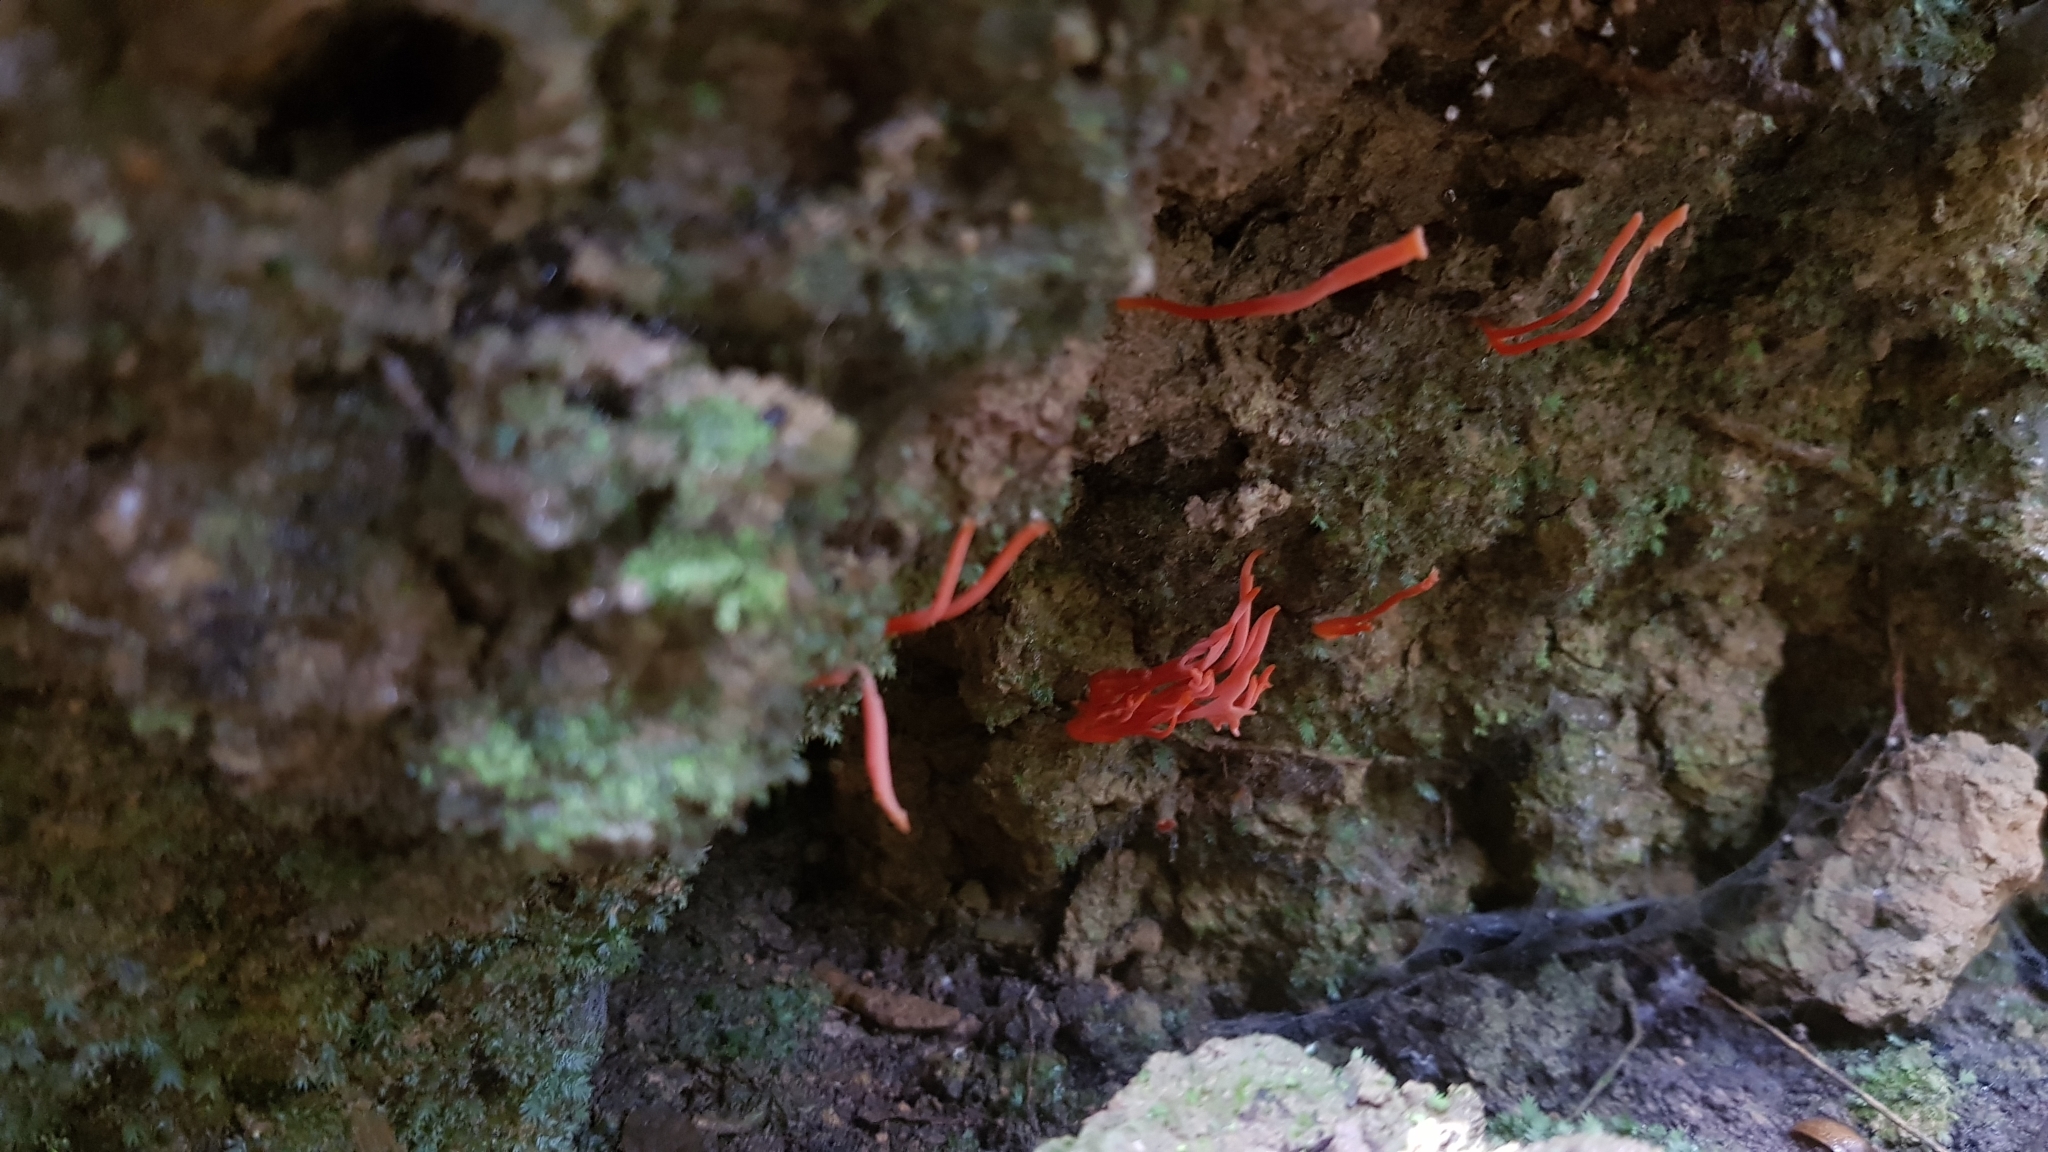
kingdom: Fungi
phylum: Basidiomycota
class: Agaricomycetes
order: Agaricales
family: Clavariaceae
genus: Clavulinopsis
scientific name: Clavulinopsis corallinorosacea
